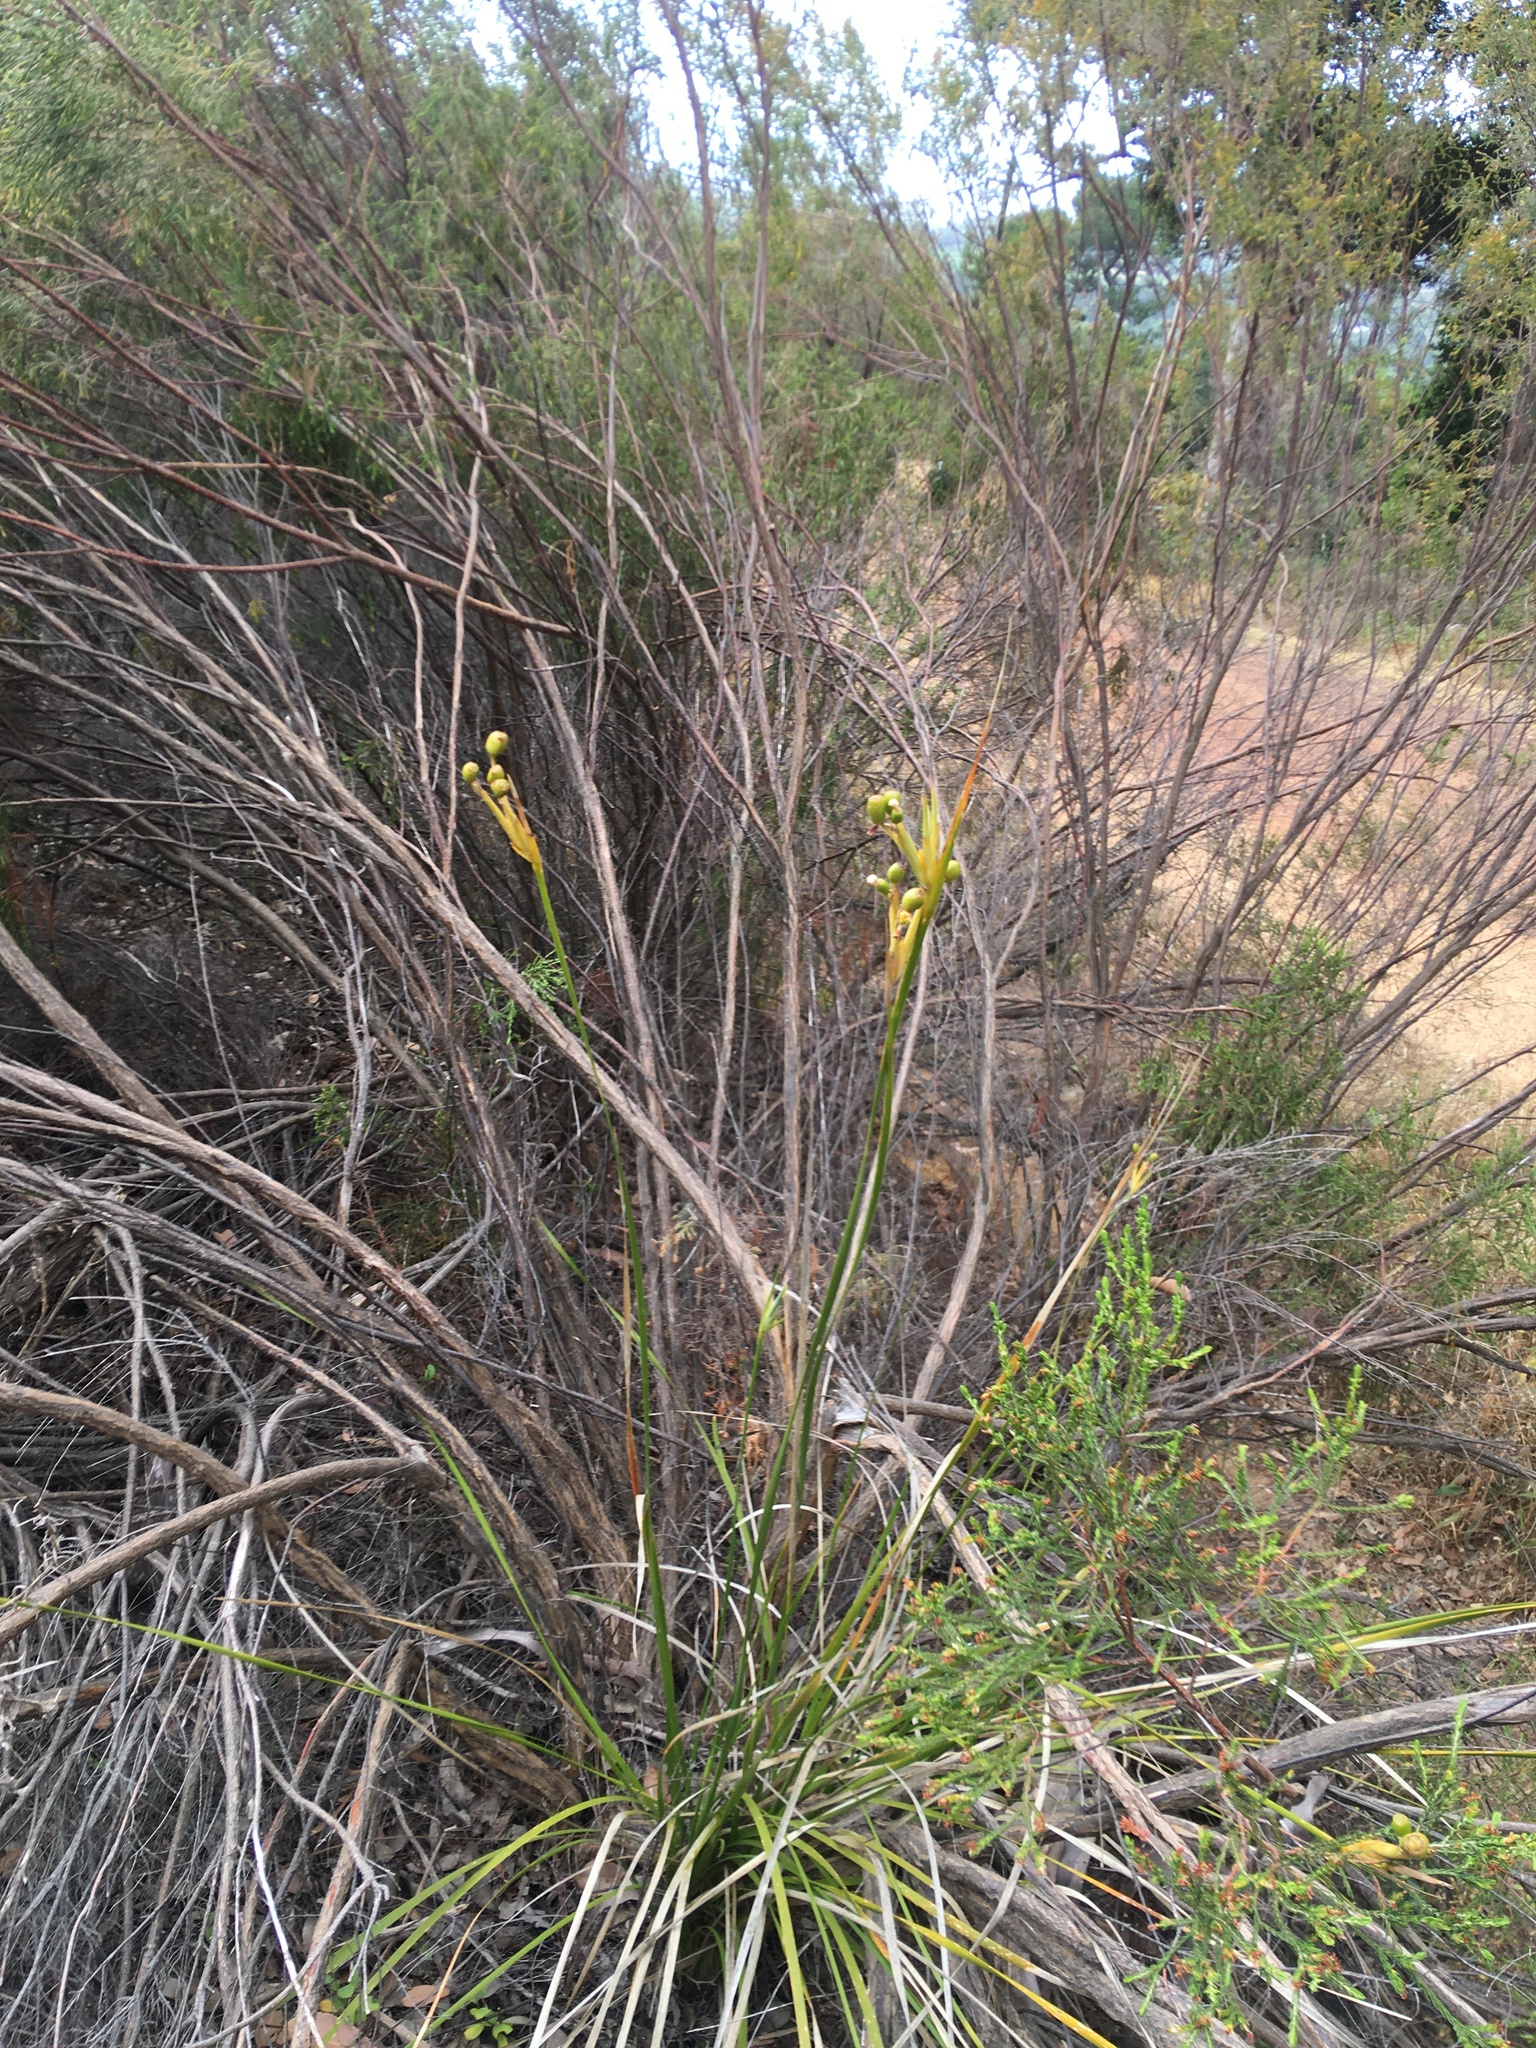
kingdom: Plantae
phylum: Tracheophyta
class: Liliopsida
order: Asparagales
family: Iridaceae
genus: Bobartia
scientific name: Bobartia gladiata
